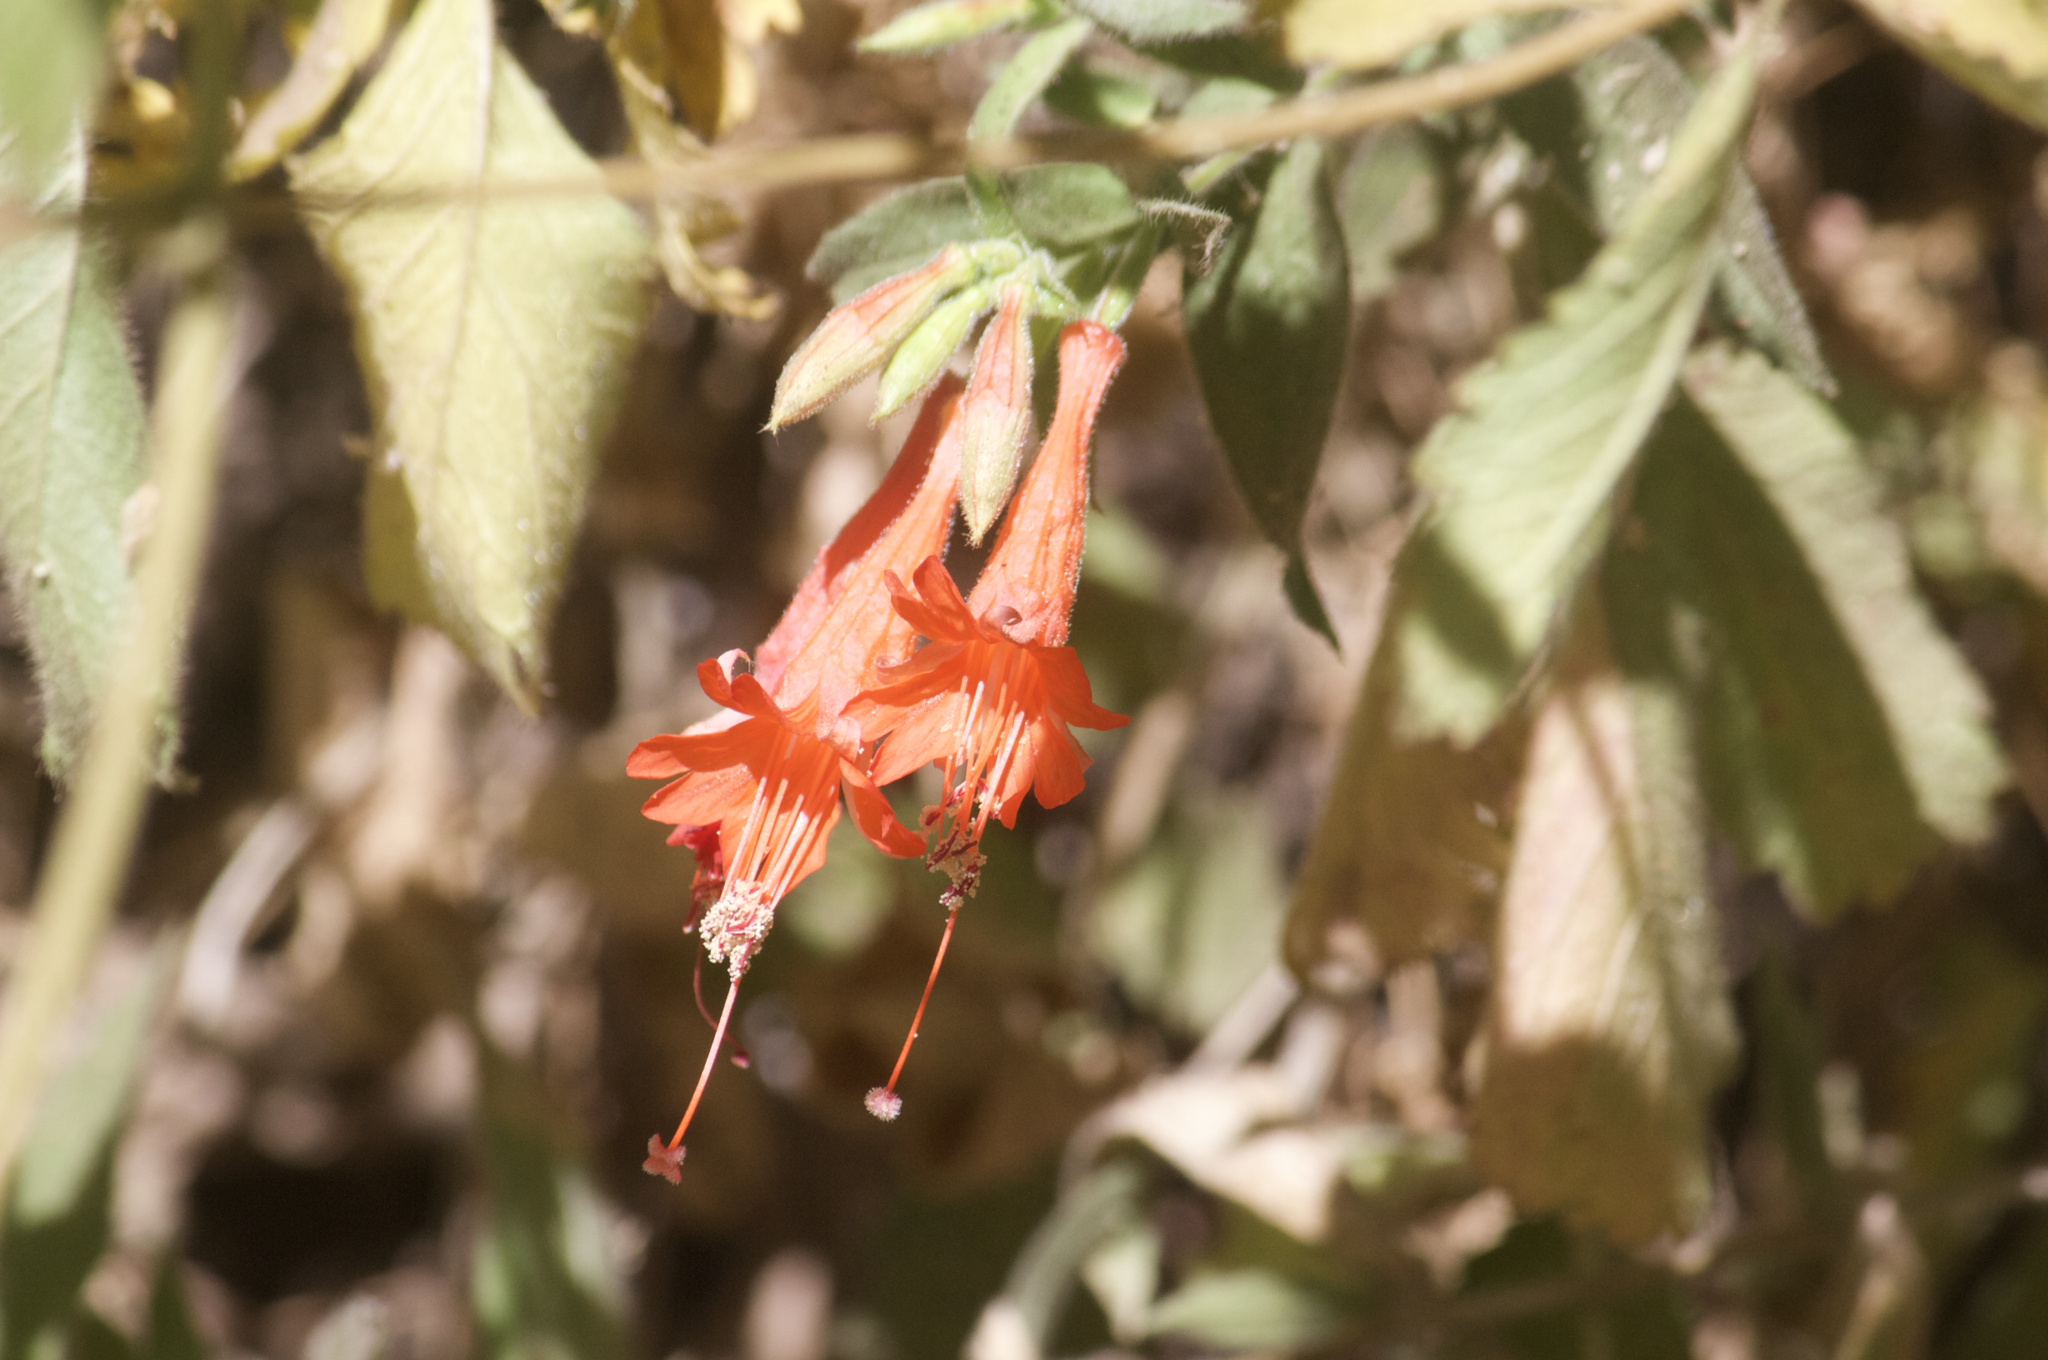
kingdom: Plantae
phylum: Tracheophyta
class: Magnoliopsida
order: Myrtales
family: Onagraceae
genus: Epilobium
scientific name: Epilobium canum
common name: California-fuchsia
